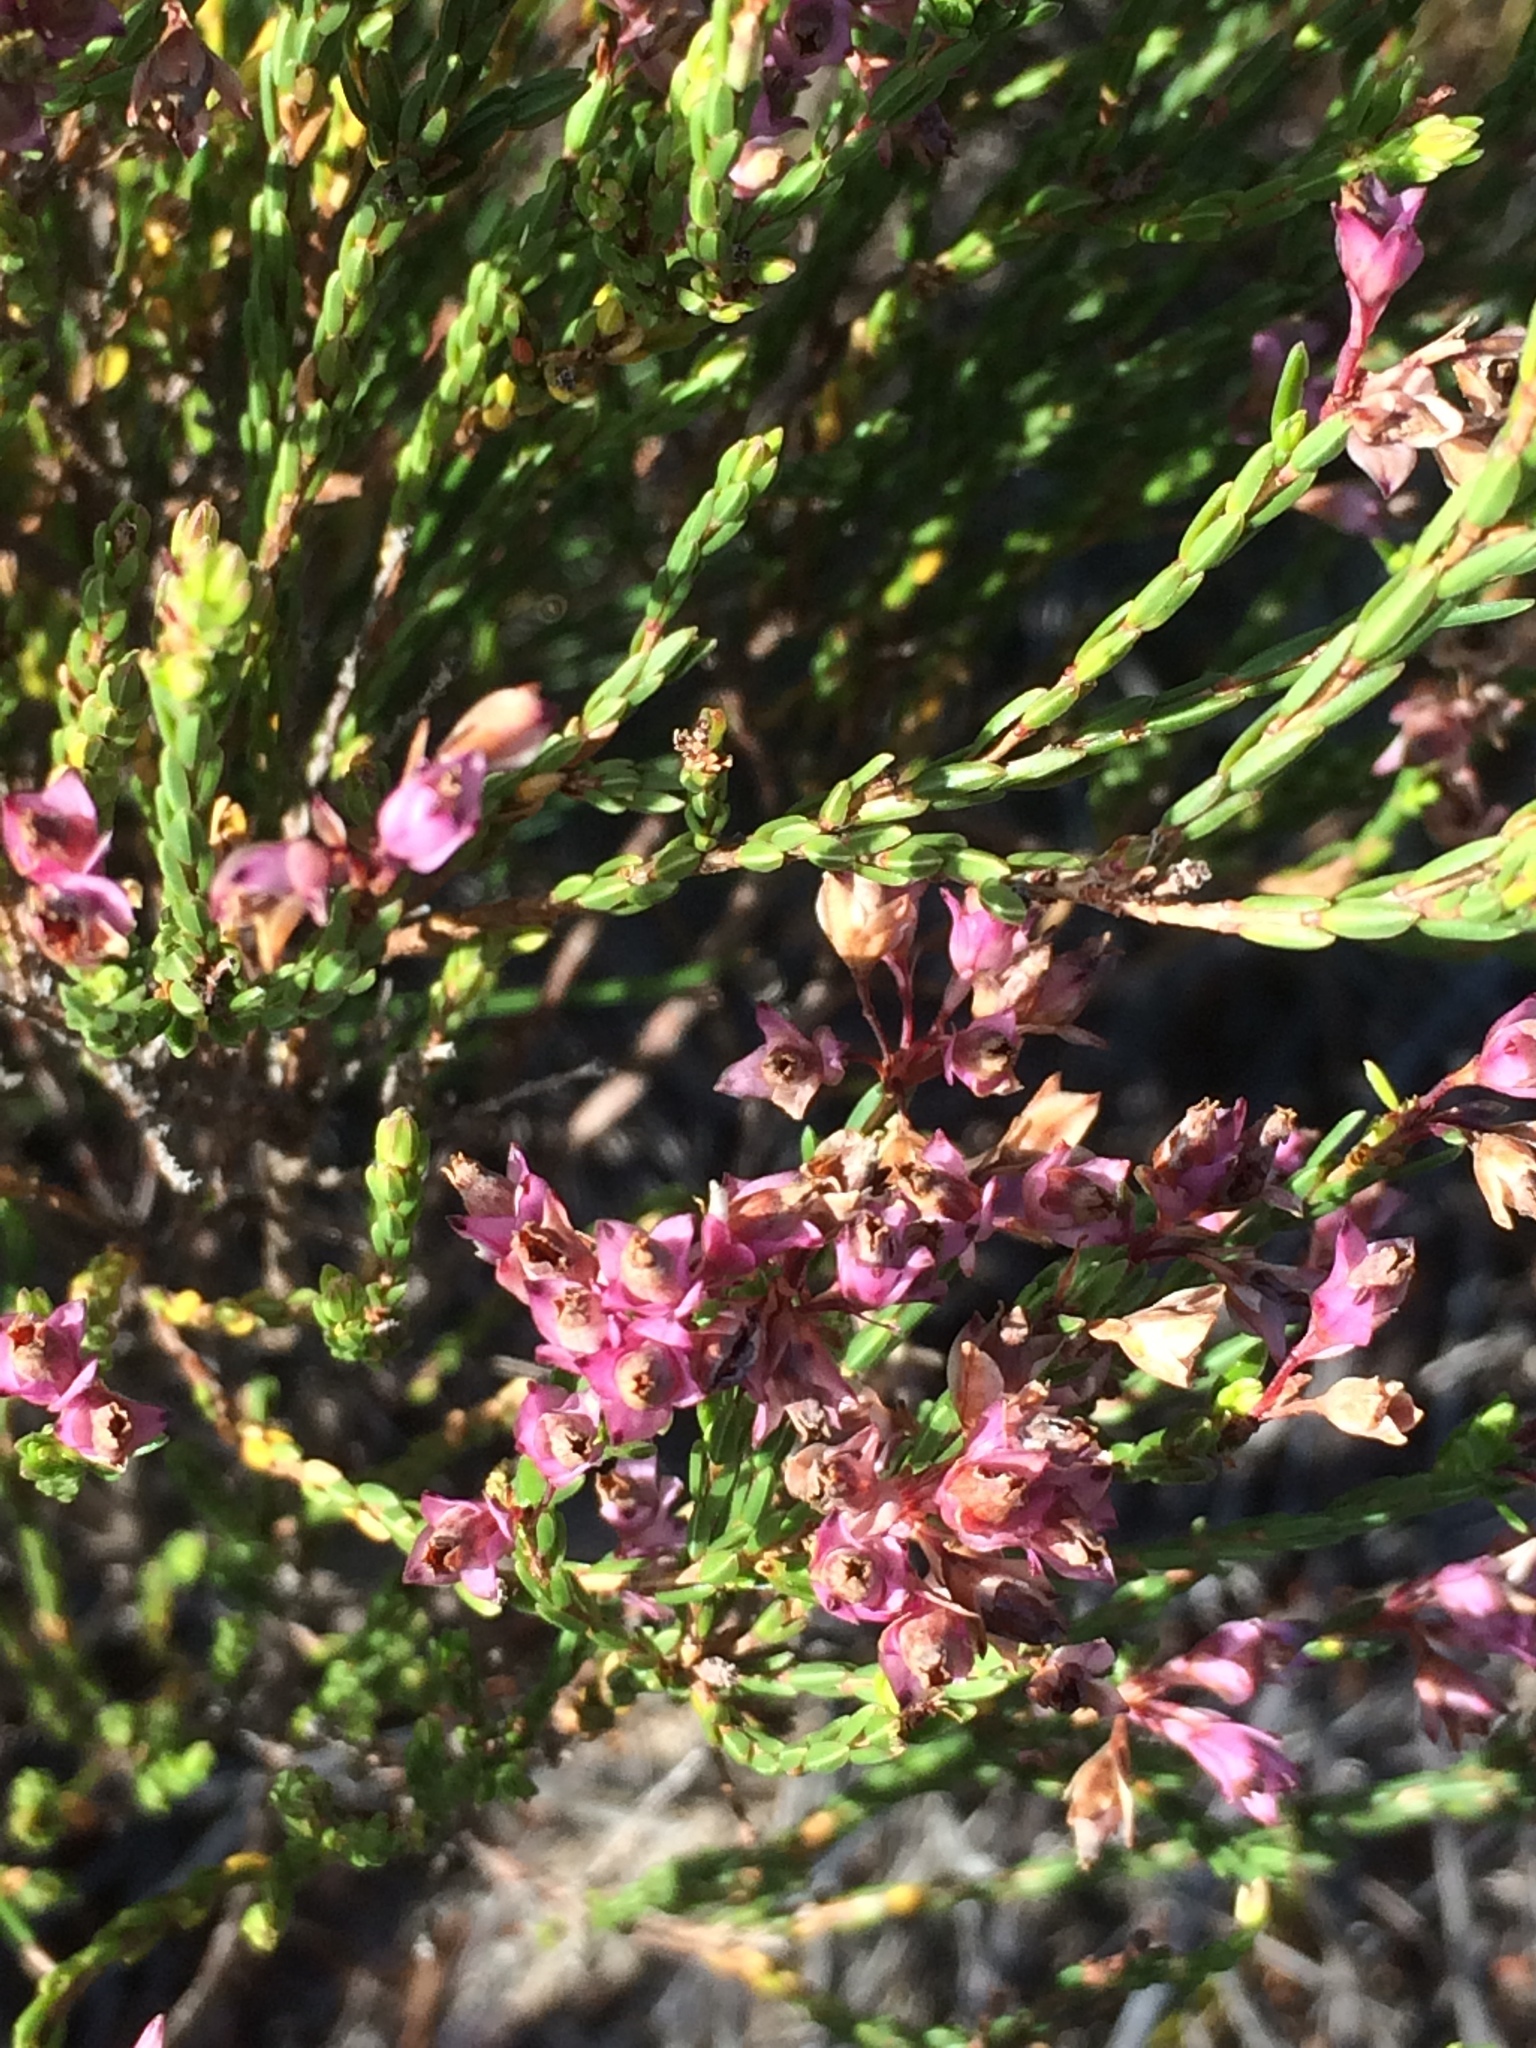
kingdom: Plantae
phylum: Tracheophyta
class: Magnoliopsida
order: Ericales
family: Ericaceae
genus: Erica
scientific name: Erica corifolia
